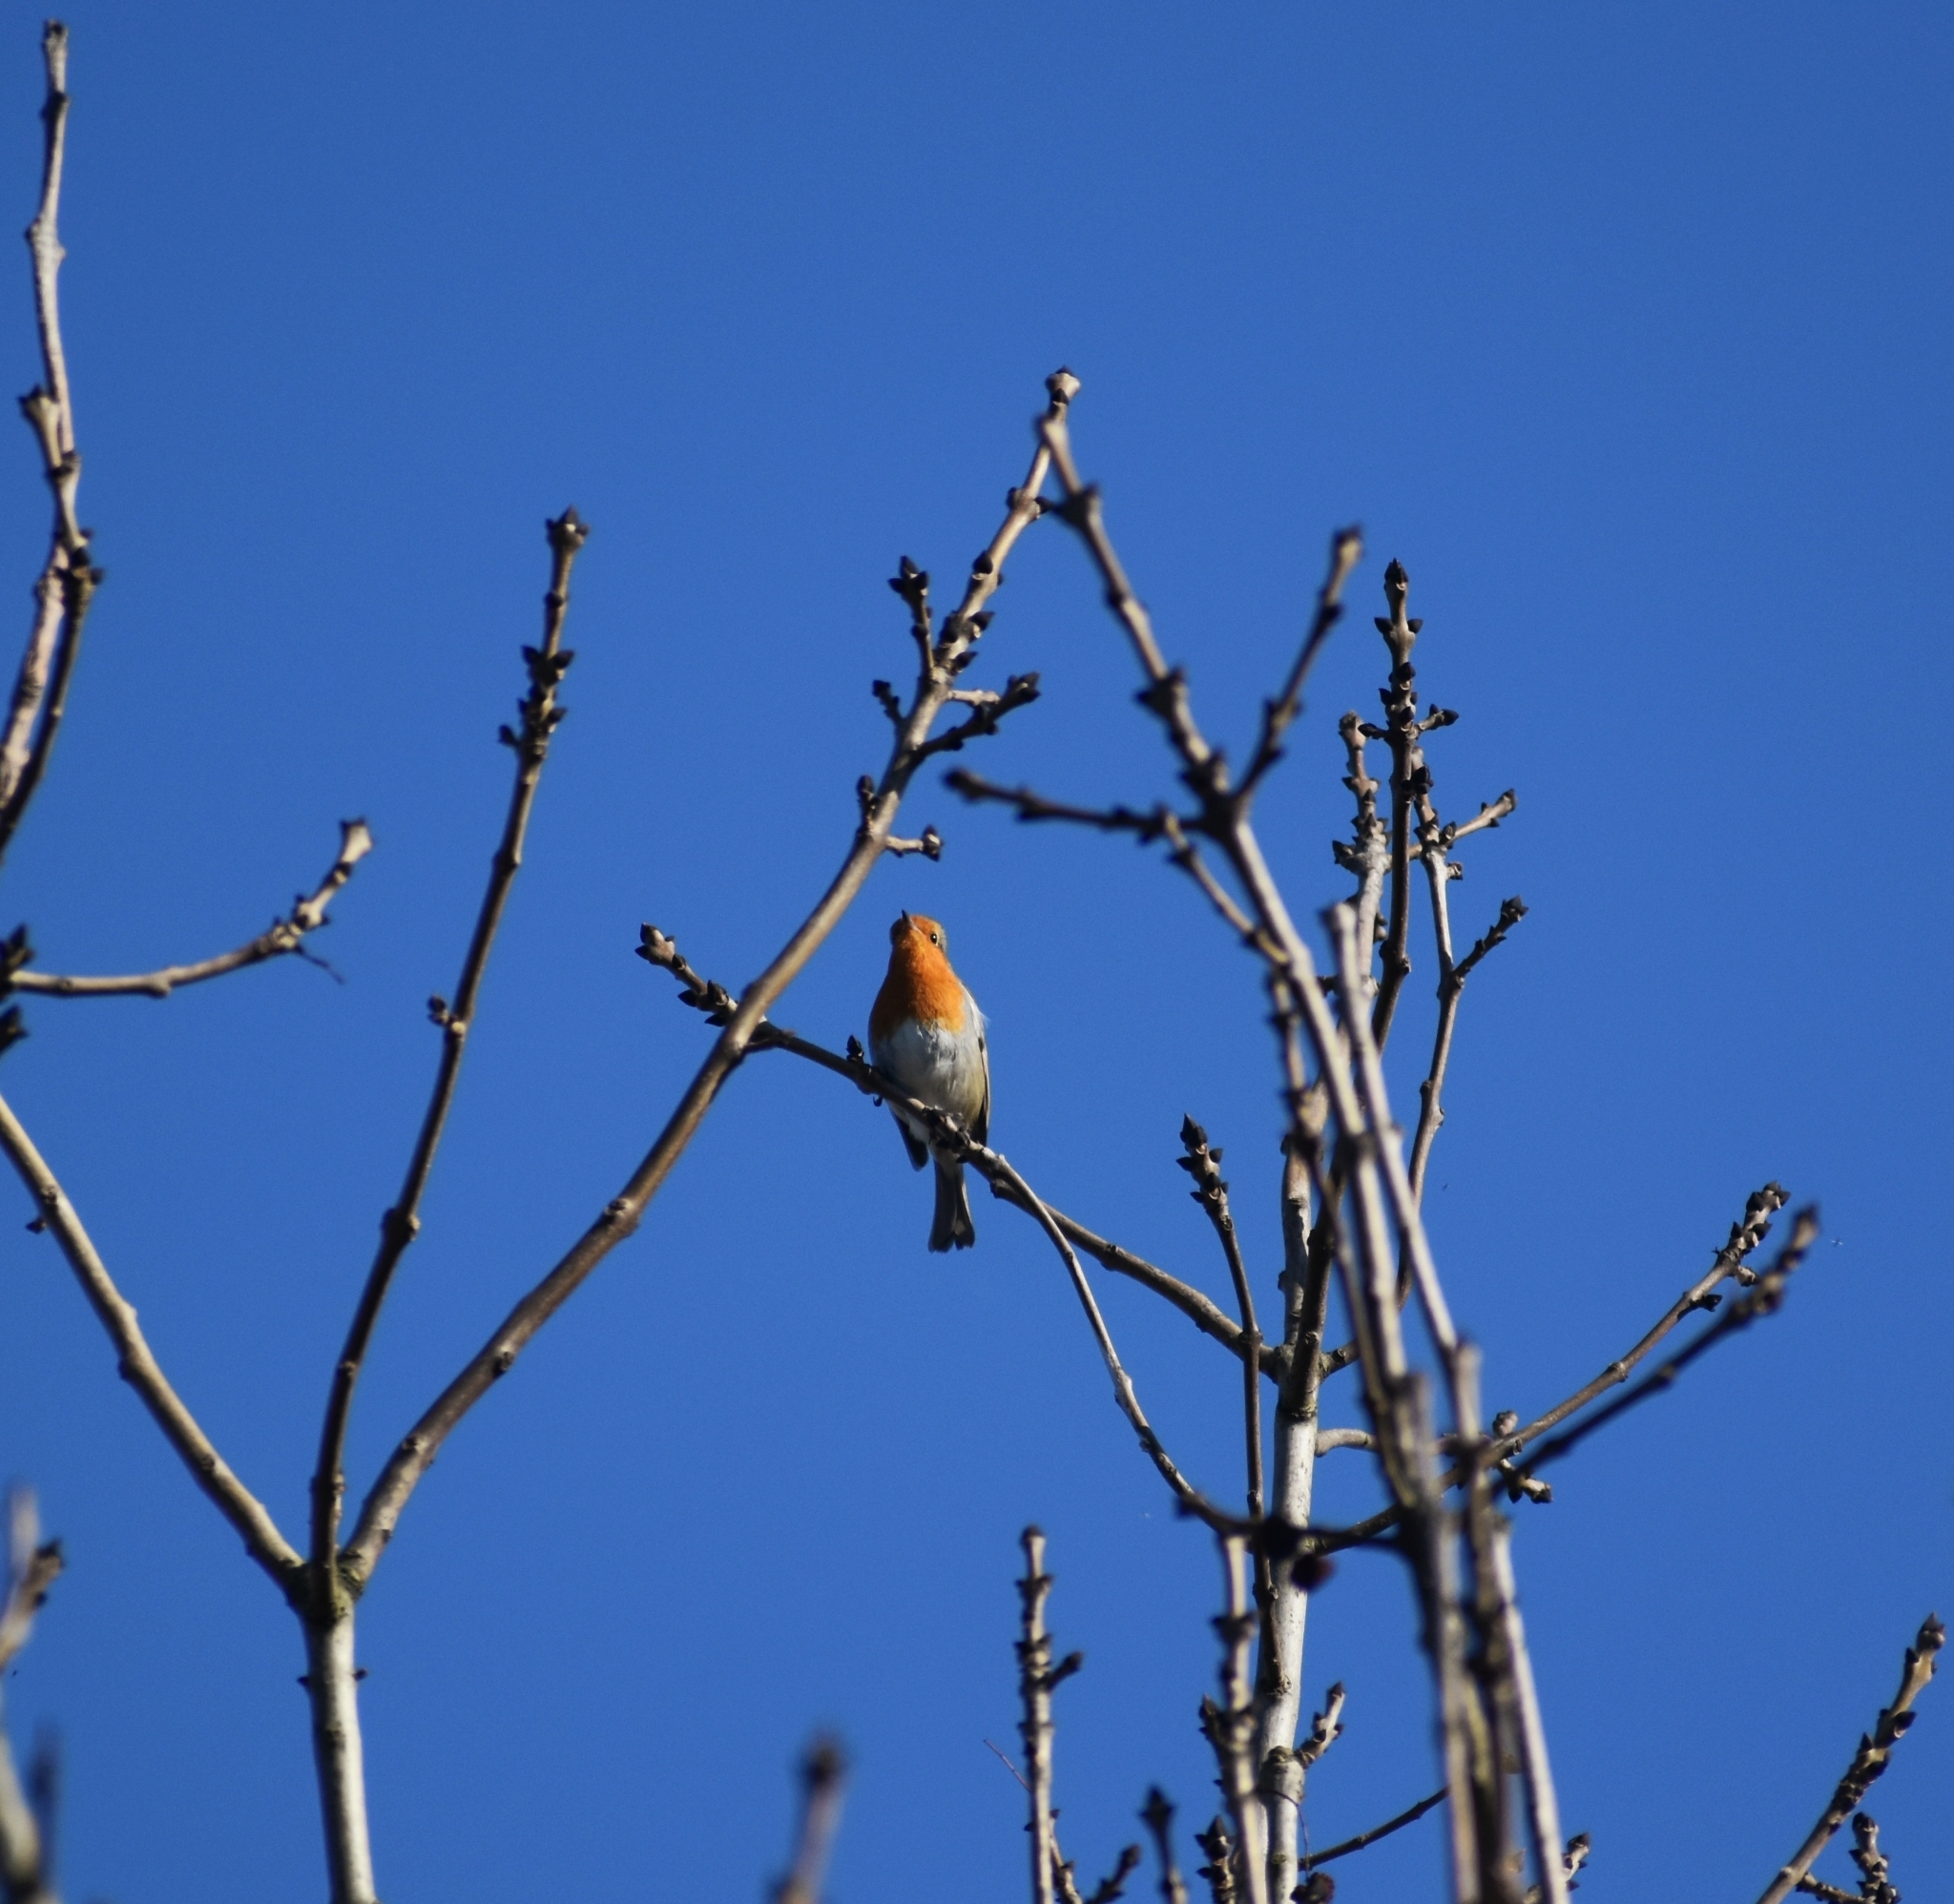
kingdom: Animalia
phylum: Chordata
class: Aves
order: Passeriformes
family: Muscicapidae
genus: Erithacus
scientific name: Erithacus rubecula
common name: European robin
